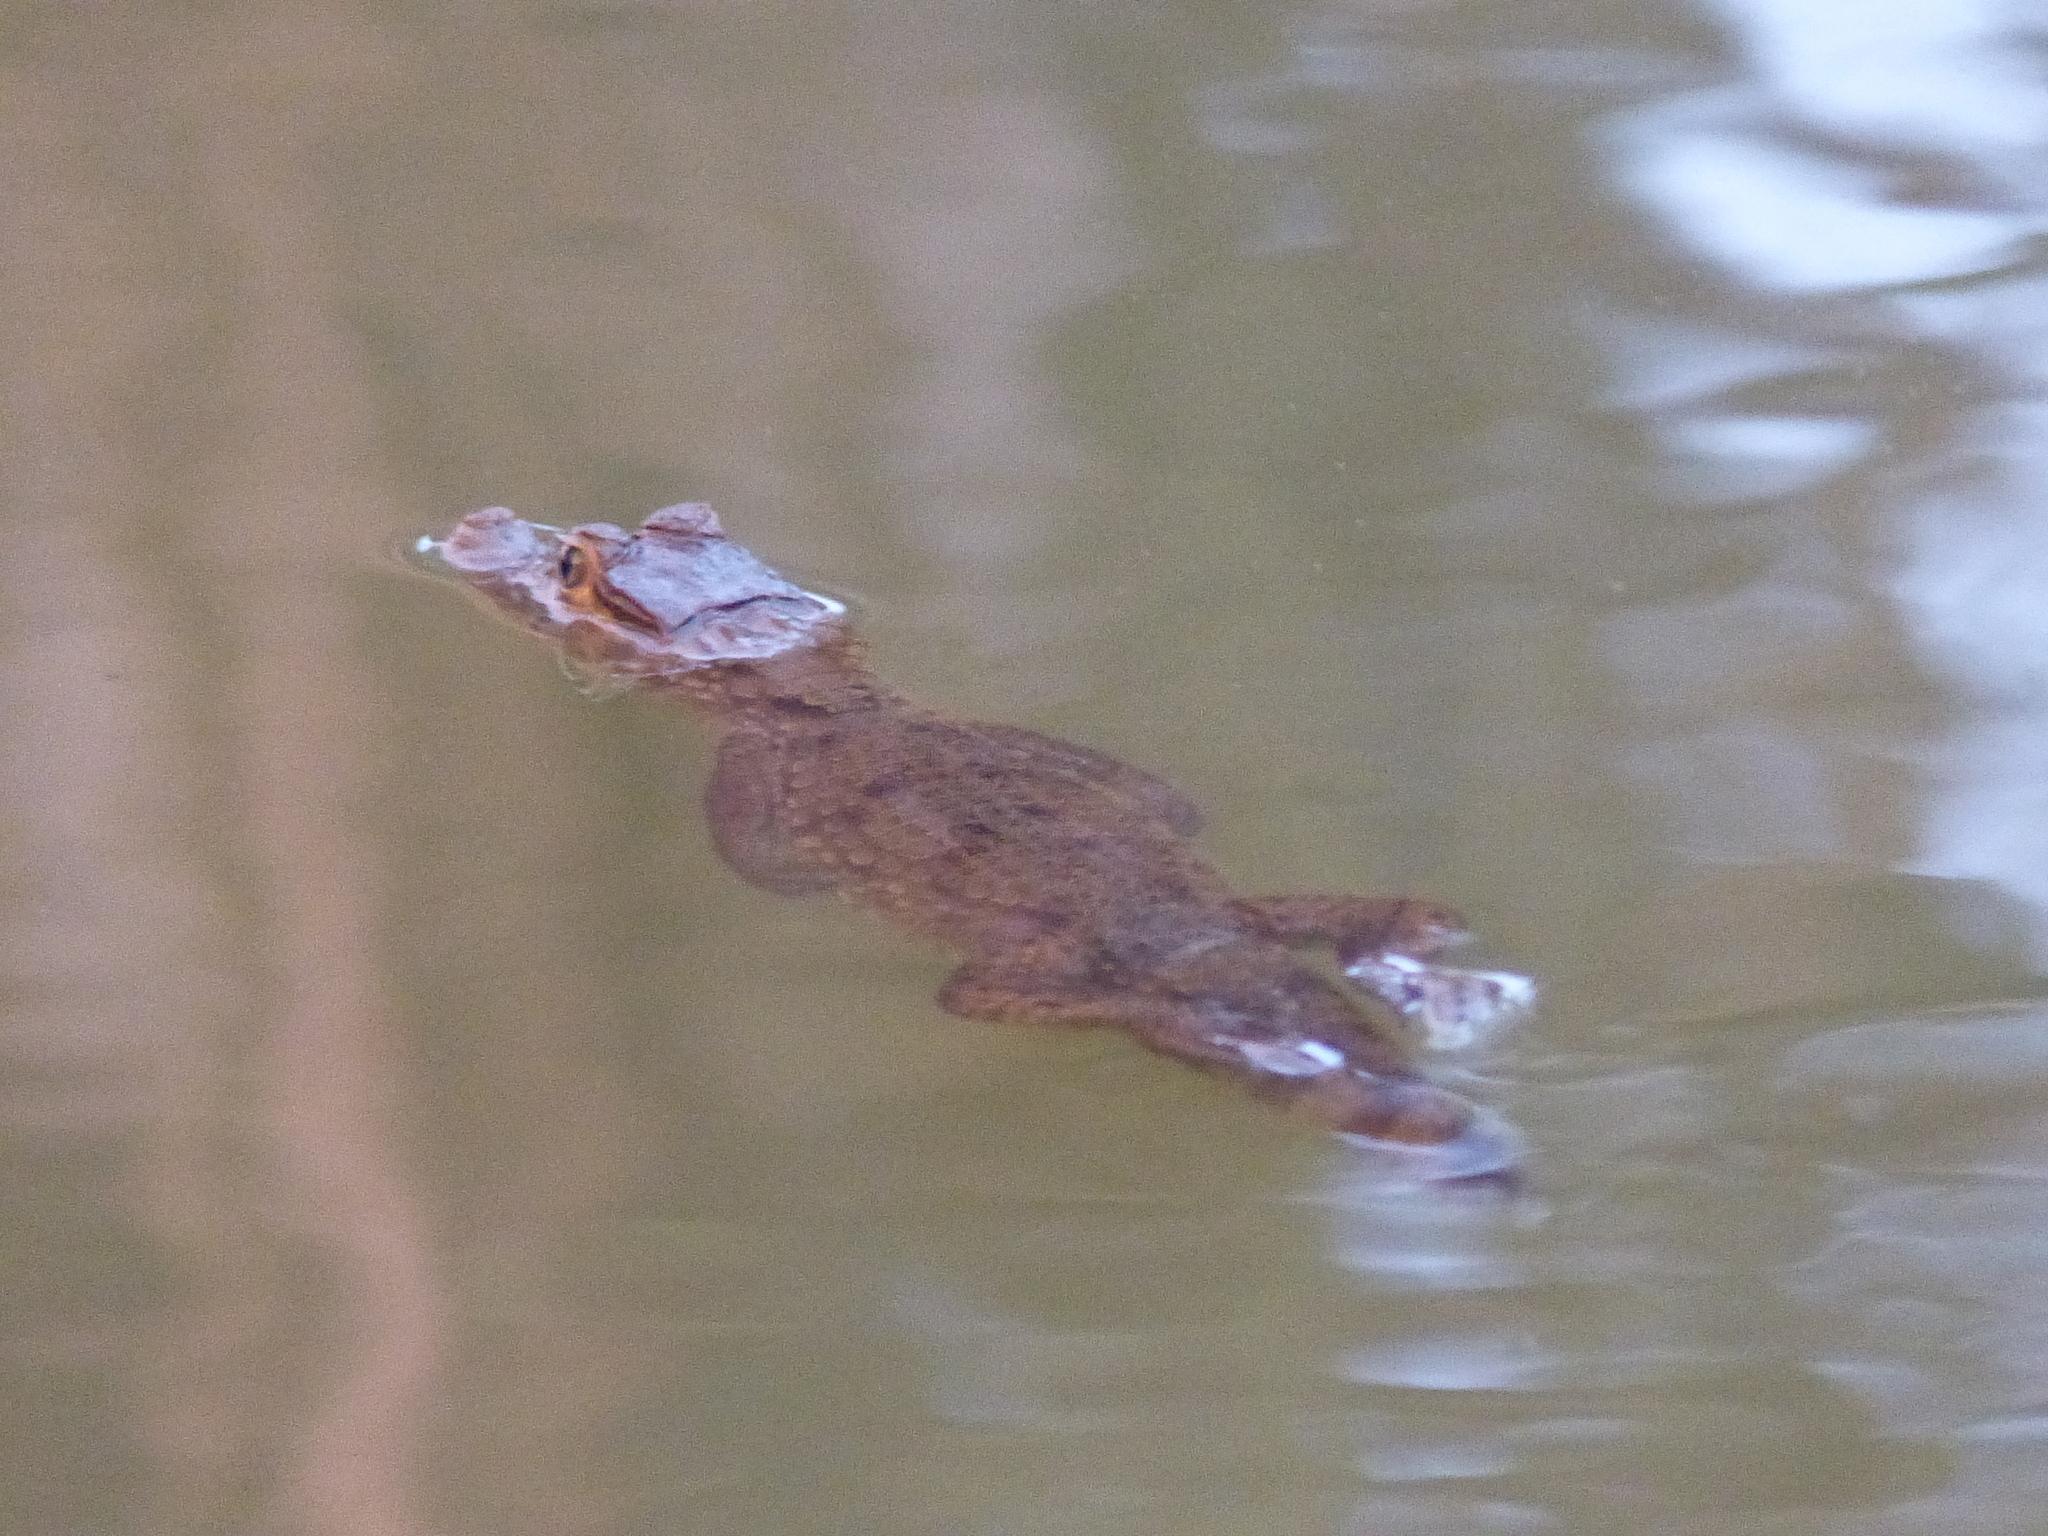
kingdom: Animalia
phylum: Chordata
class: Crocodylia
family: Alligatoridae
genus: Caiman
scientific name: Caiman crocodilus
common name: Common caiman
